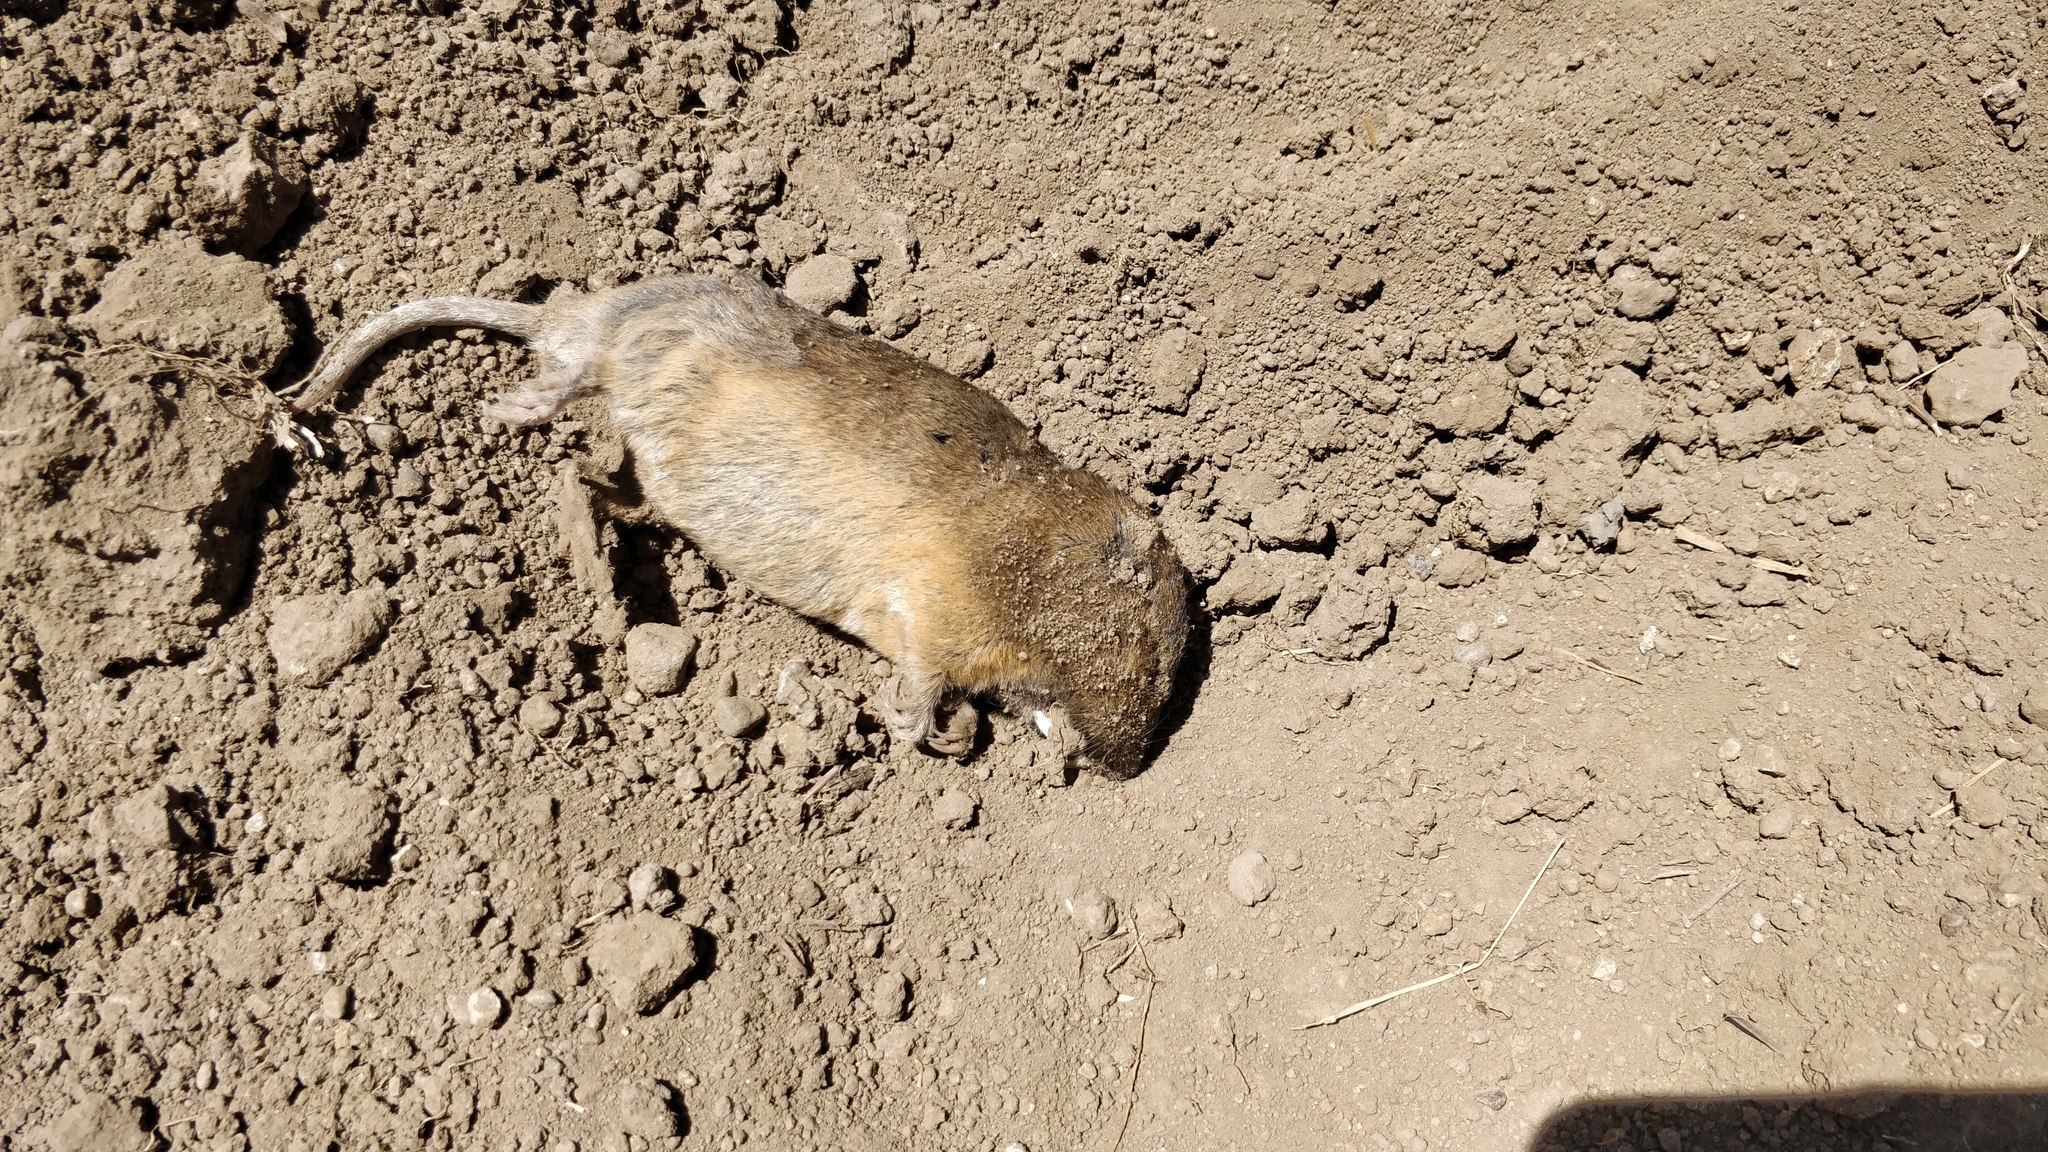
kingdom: Animalia
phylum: Chordata
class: Mammalia
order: Rodentia
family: Geomyidae
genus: Thomomys
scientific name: Thomomys bottae
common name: Botta's pocket gopher
